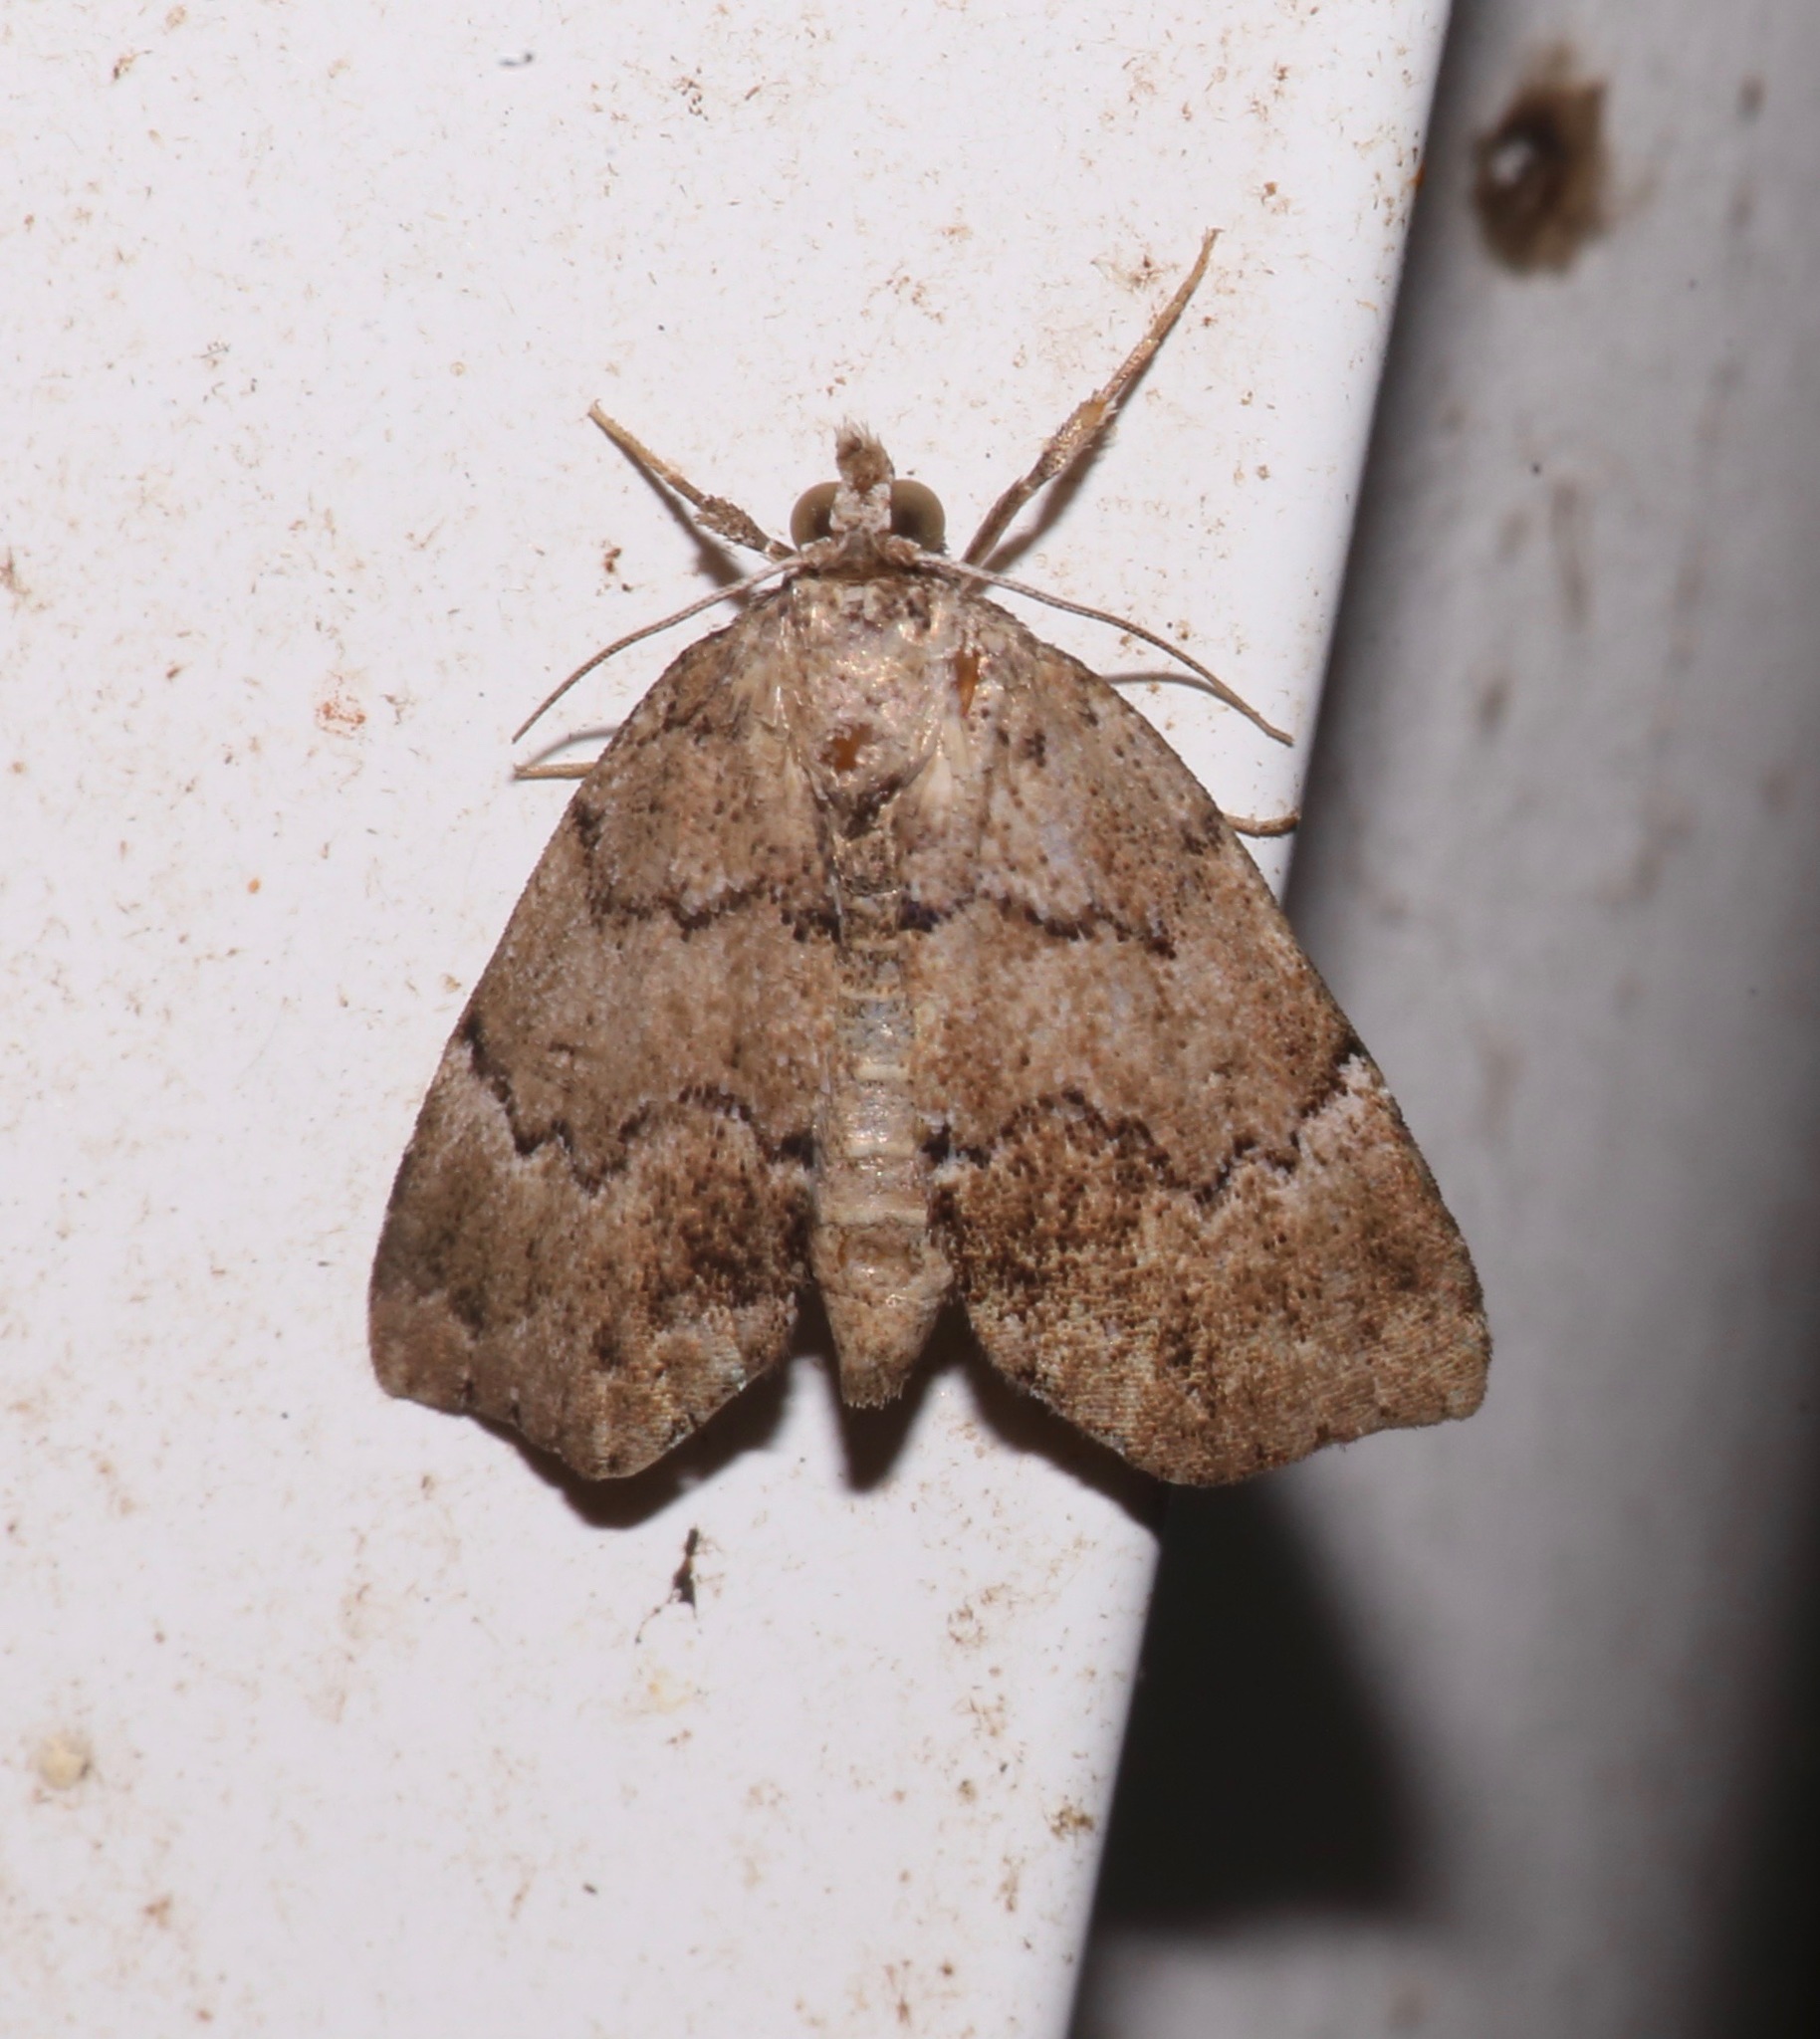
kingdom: Animalia
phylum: Arthropoda
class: Insecta
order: Lepidoptera
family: Erebidae
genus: Cutina
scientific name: Cutina aluticolor
